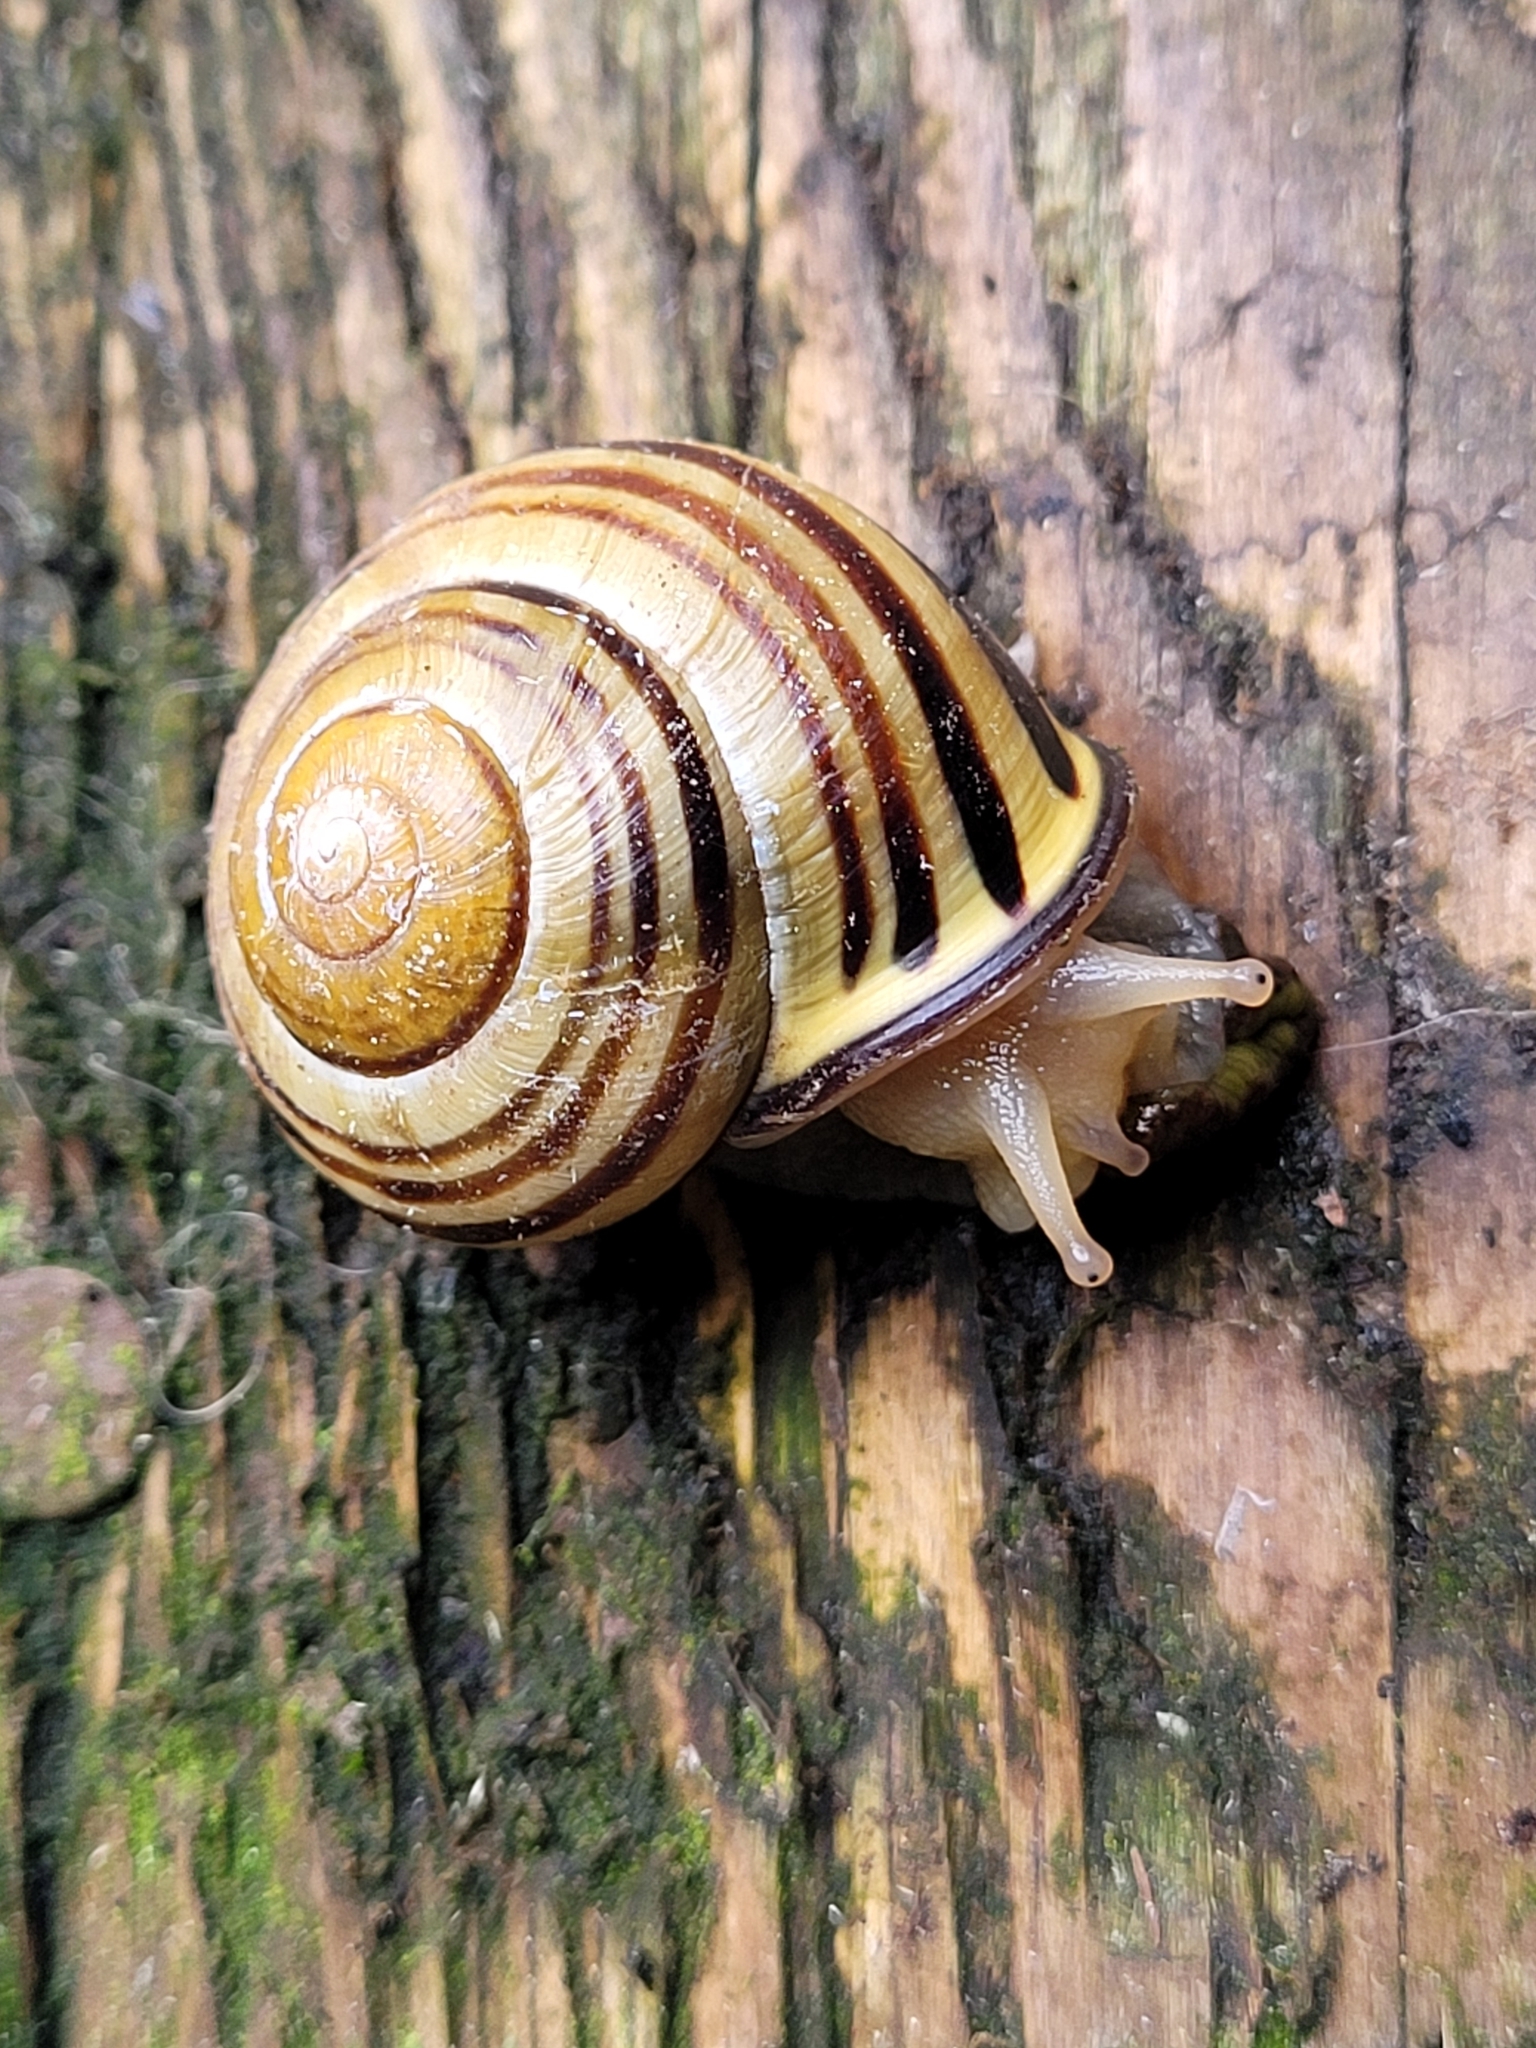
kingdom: Animalia
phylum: Mollusca
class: Gastropoda
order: Stylommatophora
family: Helicidae
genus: Cepaea
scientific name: Cepaea nemoralis
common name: Grovesnail
